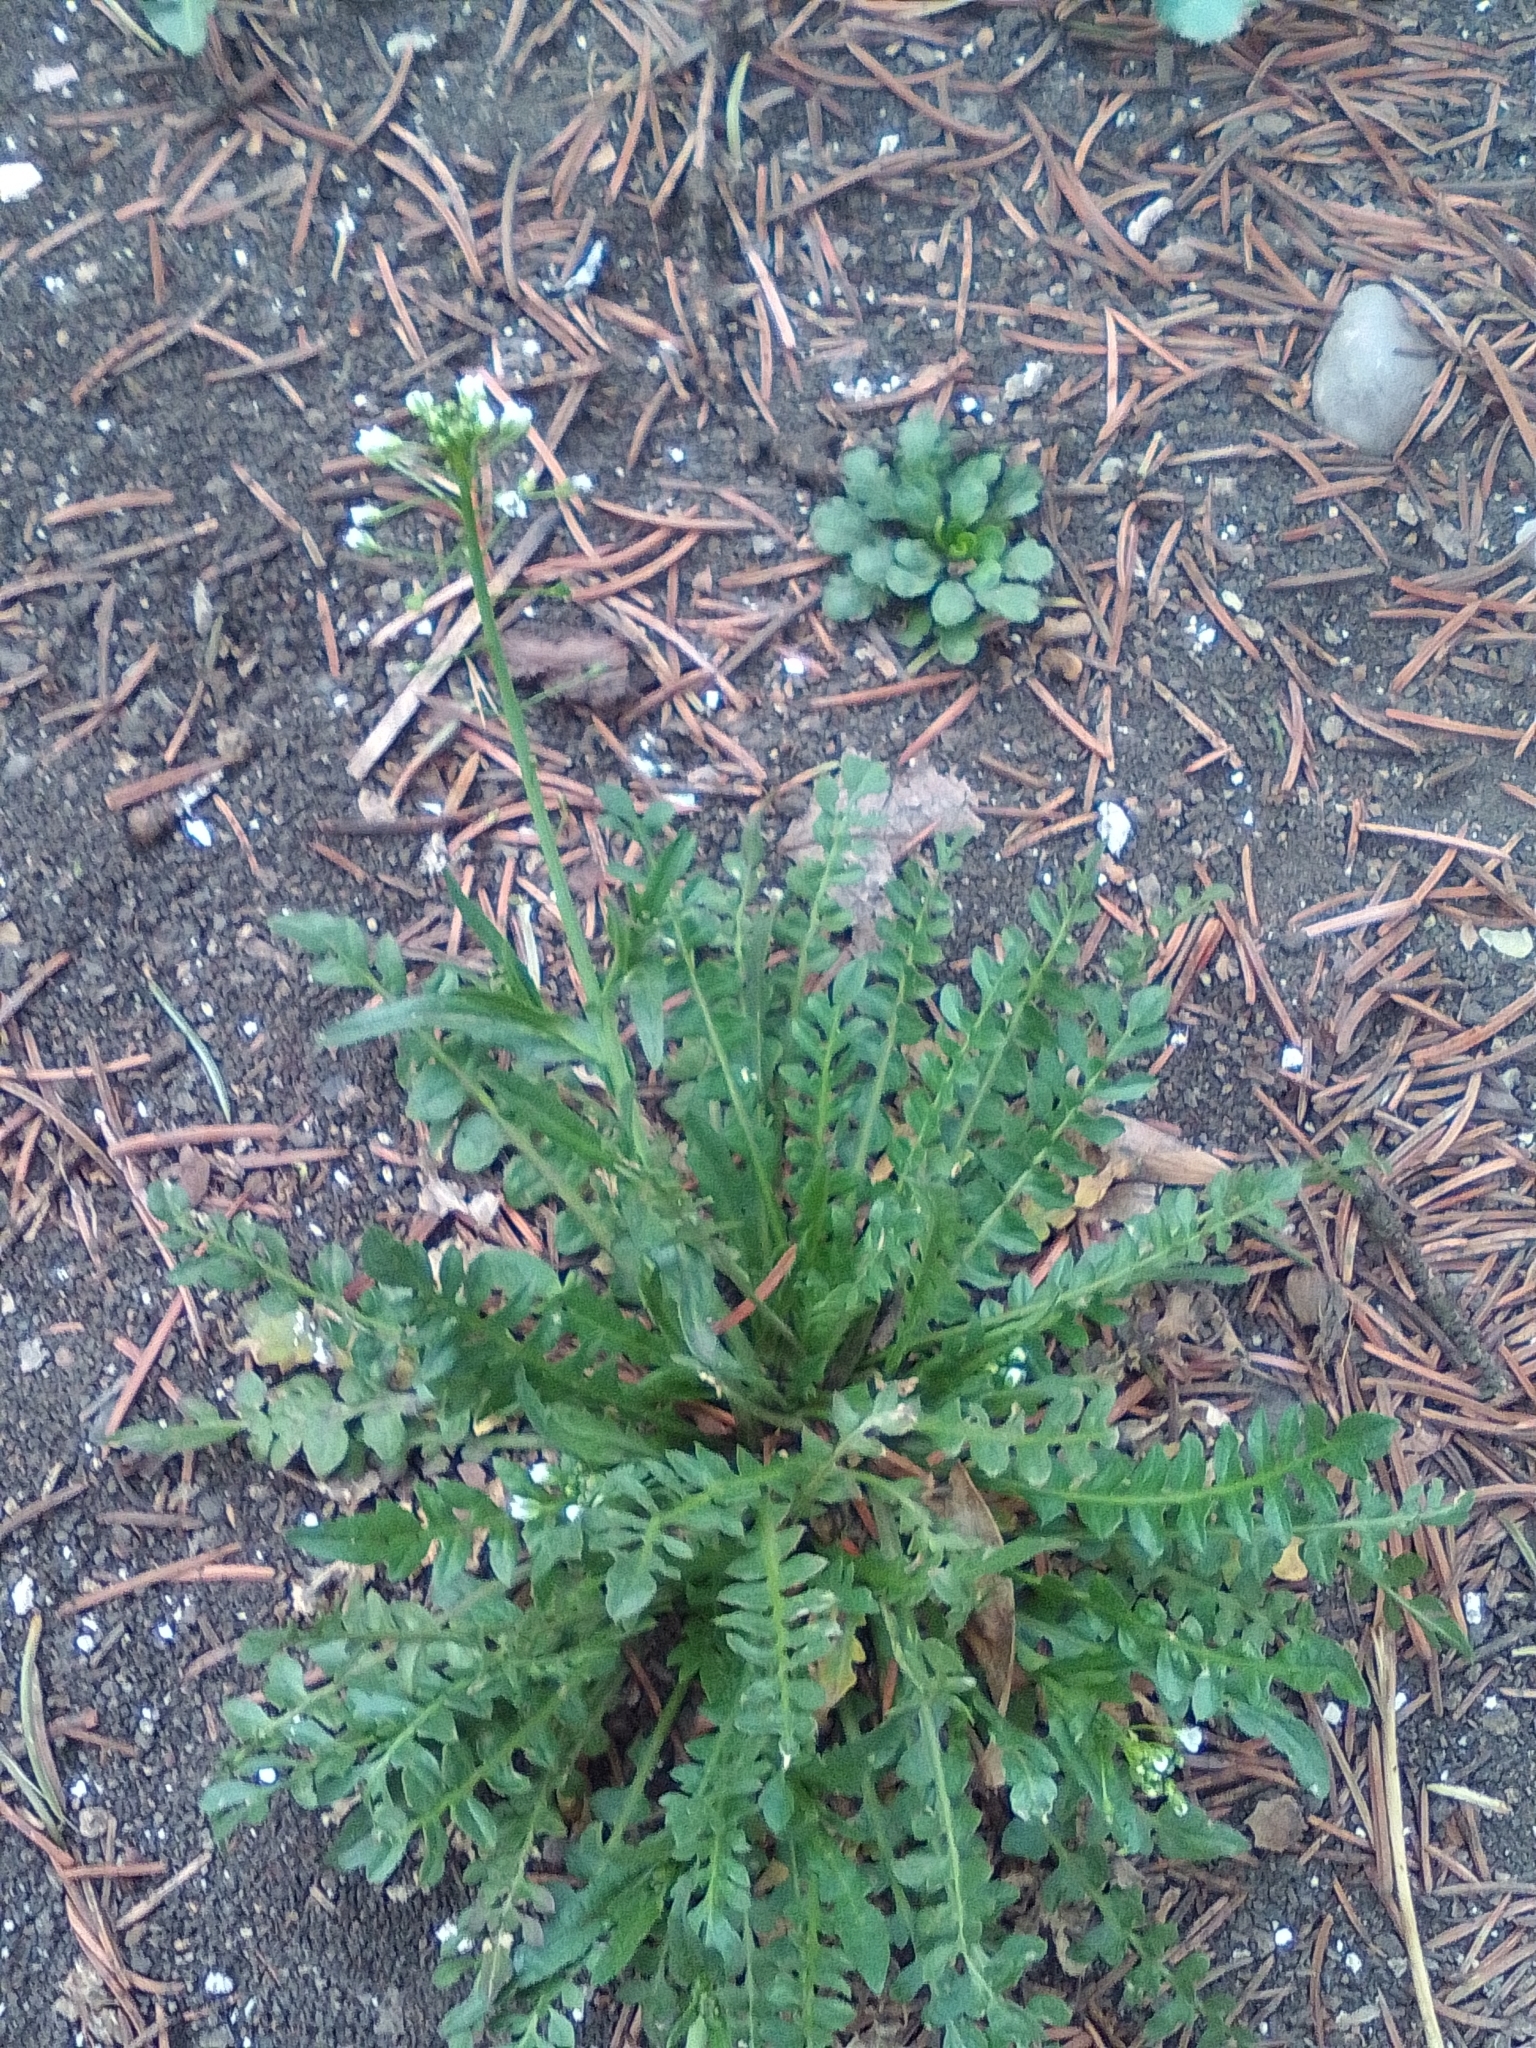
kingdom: Plantae
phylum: Tracheophyta
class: Magnoliopsida
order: Brassicales
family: Brassicaceae
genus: Capsella
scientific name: Capsella bursa-pastoris
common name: Shepherd's purse
